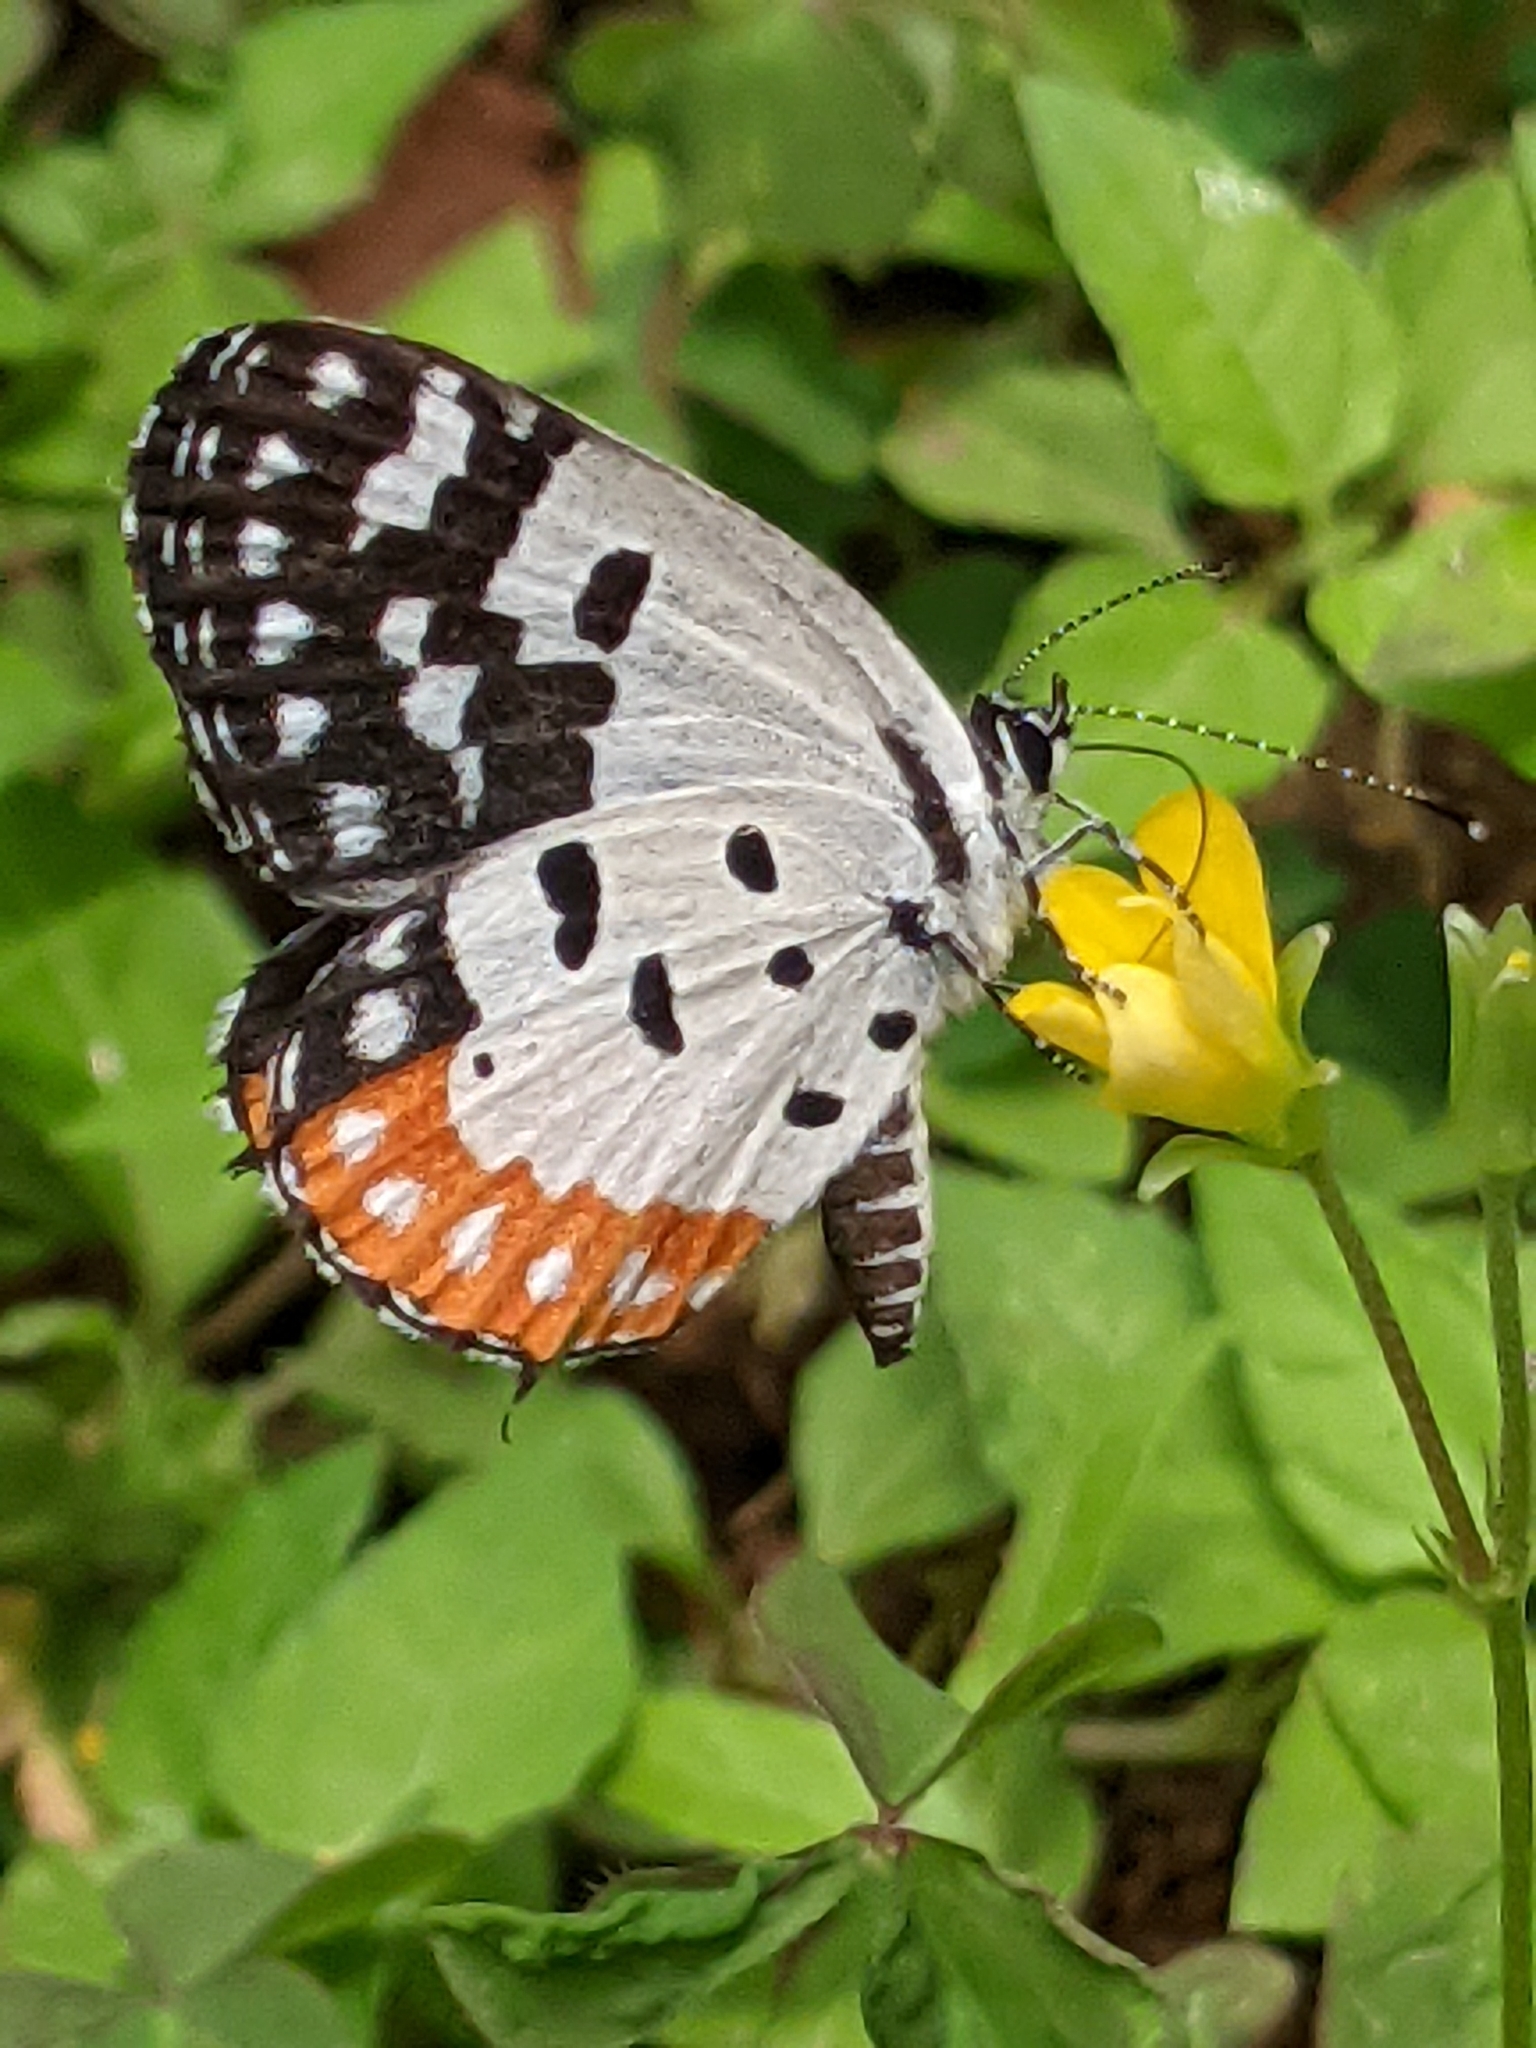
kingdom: Animalia
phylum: Arthropoda
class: Insecta
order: Lepidoptera
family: Lycaenidae
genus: Talicada
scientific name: Talicada nyseus
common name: Red pierrot
